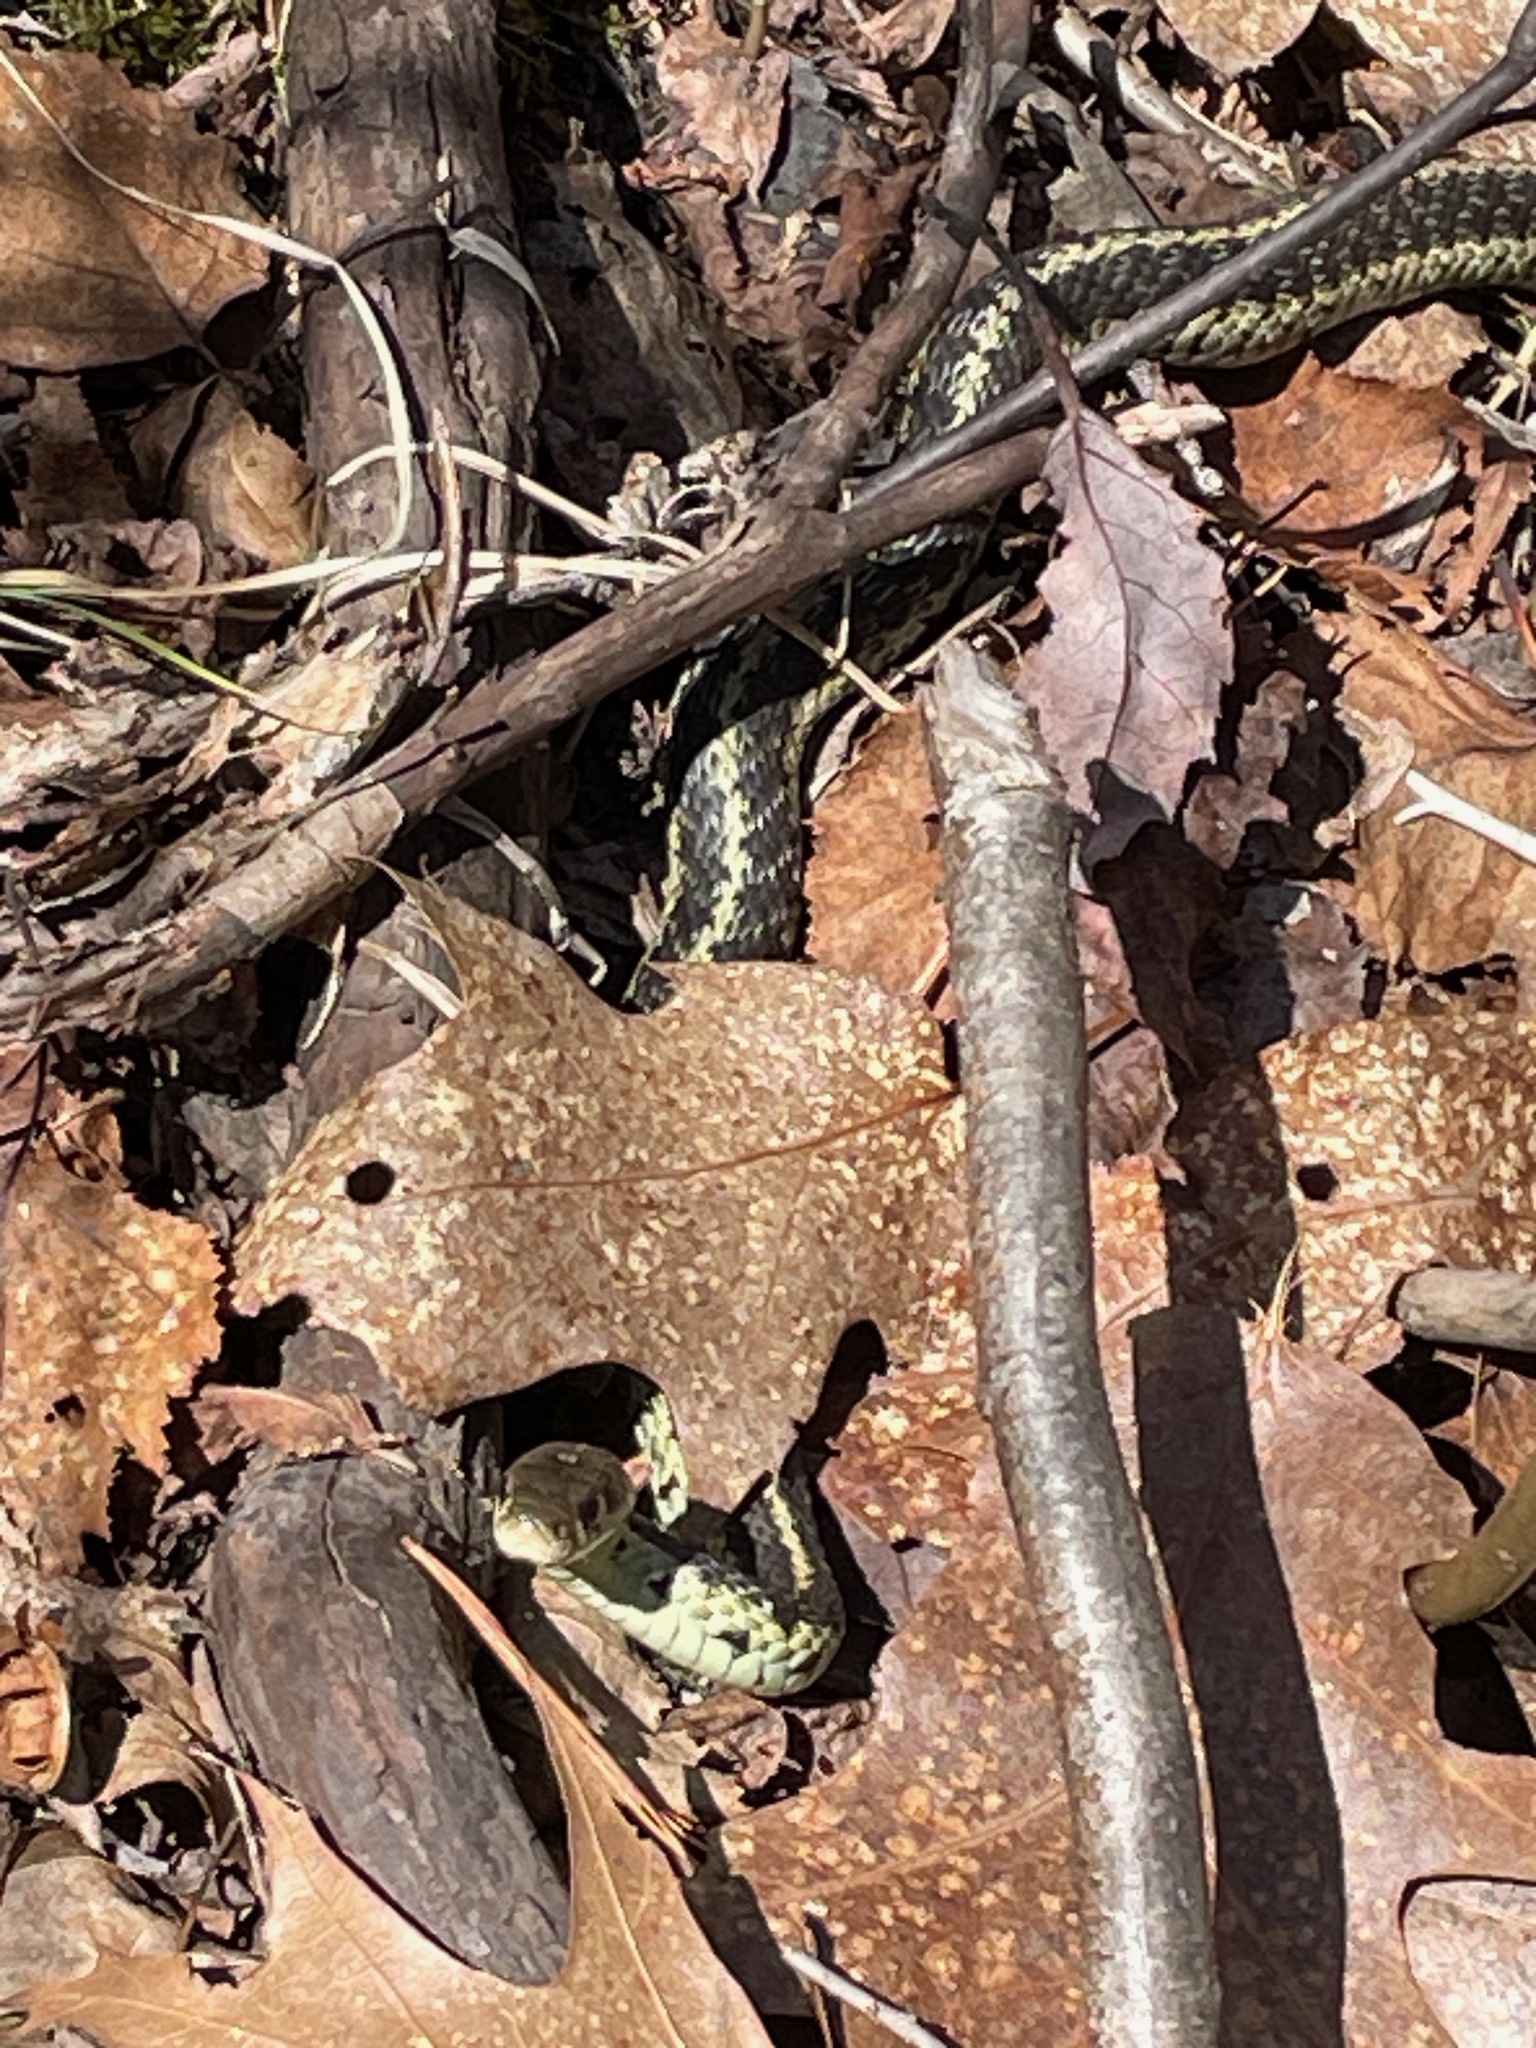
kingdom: Animalia
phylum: Chordata
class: Squamata
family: Colubridae
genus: Thamnophis
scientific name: Thamnophis sirtalis
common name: Common garter snake
